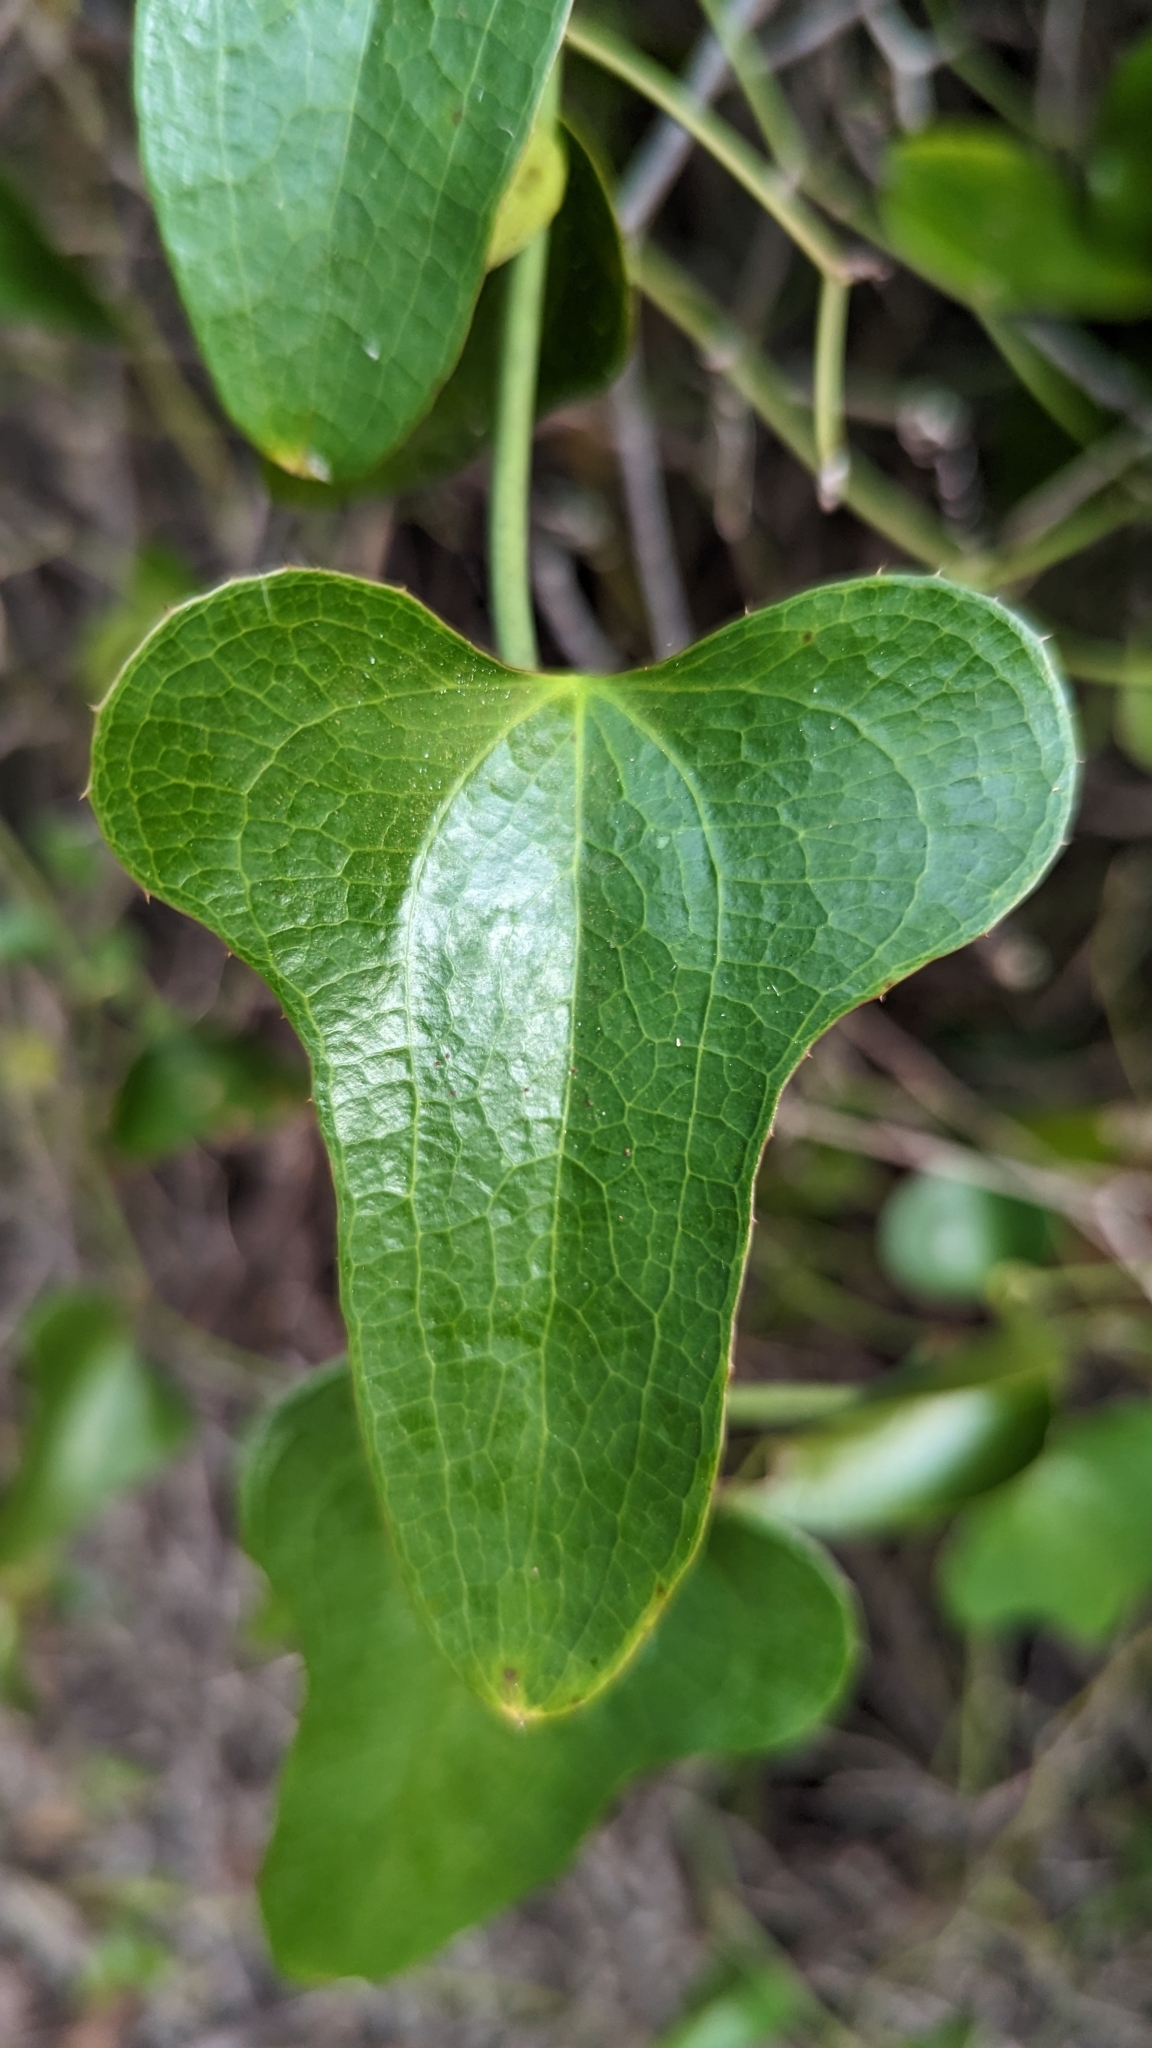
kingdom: Plantae
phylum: Tracheophyta
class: Liliopsida
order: Liliales
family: Smilacaceae
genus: Smilax
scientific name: Smilax bona-nox
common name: Catbrier
